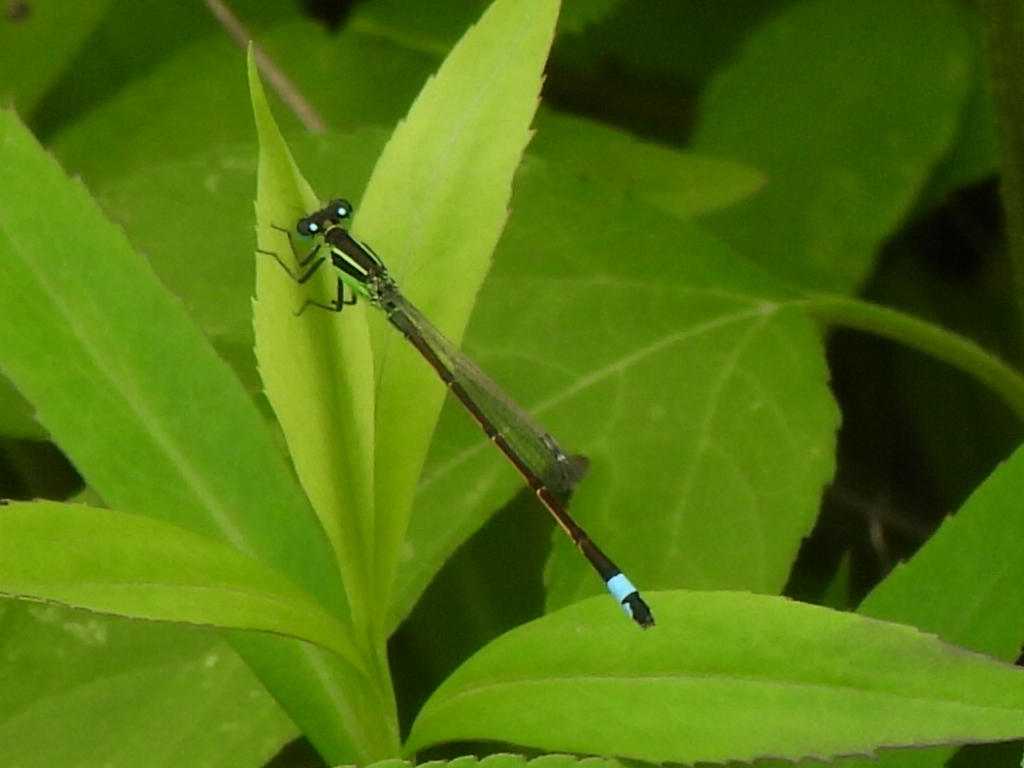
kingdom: Animalia
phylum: Arthropoda
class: Insecta
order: Odonata
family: Coenagrionidae
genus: Ischnura
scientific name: Ischnura ramburii
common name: Rambur's forktail
